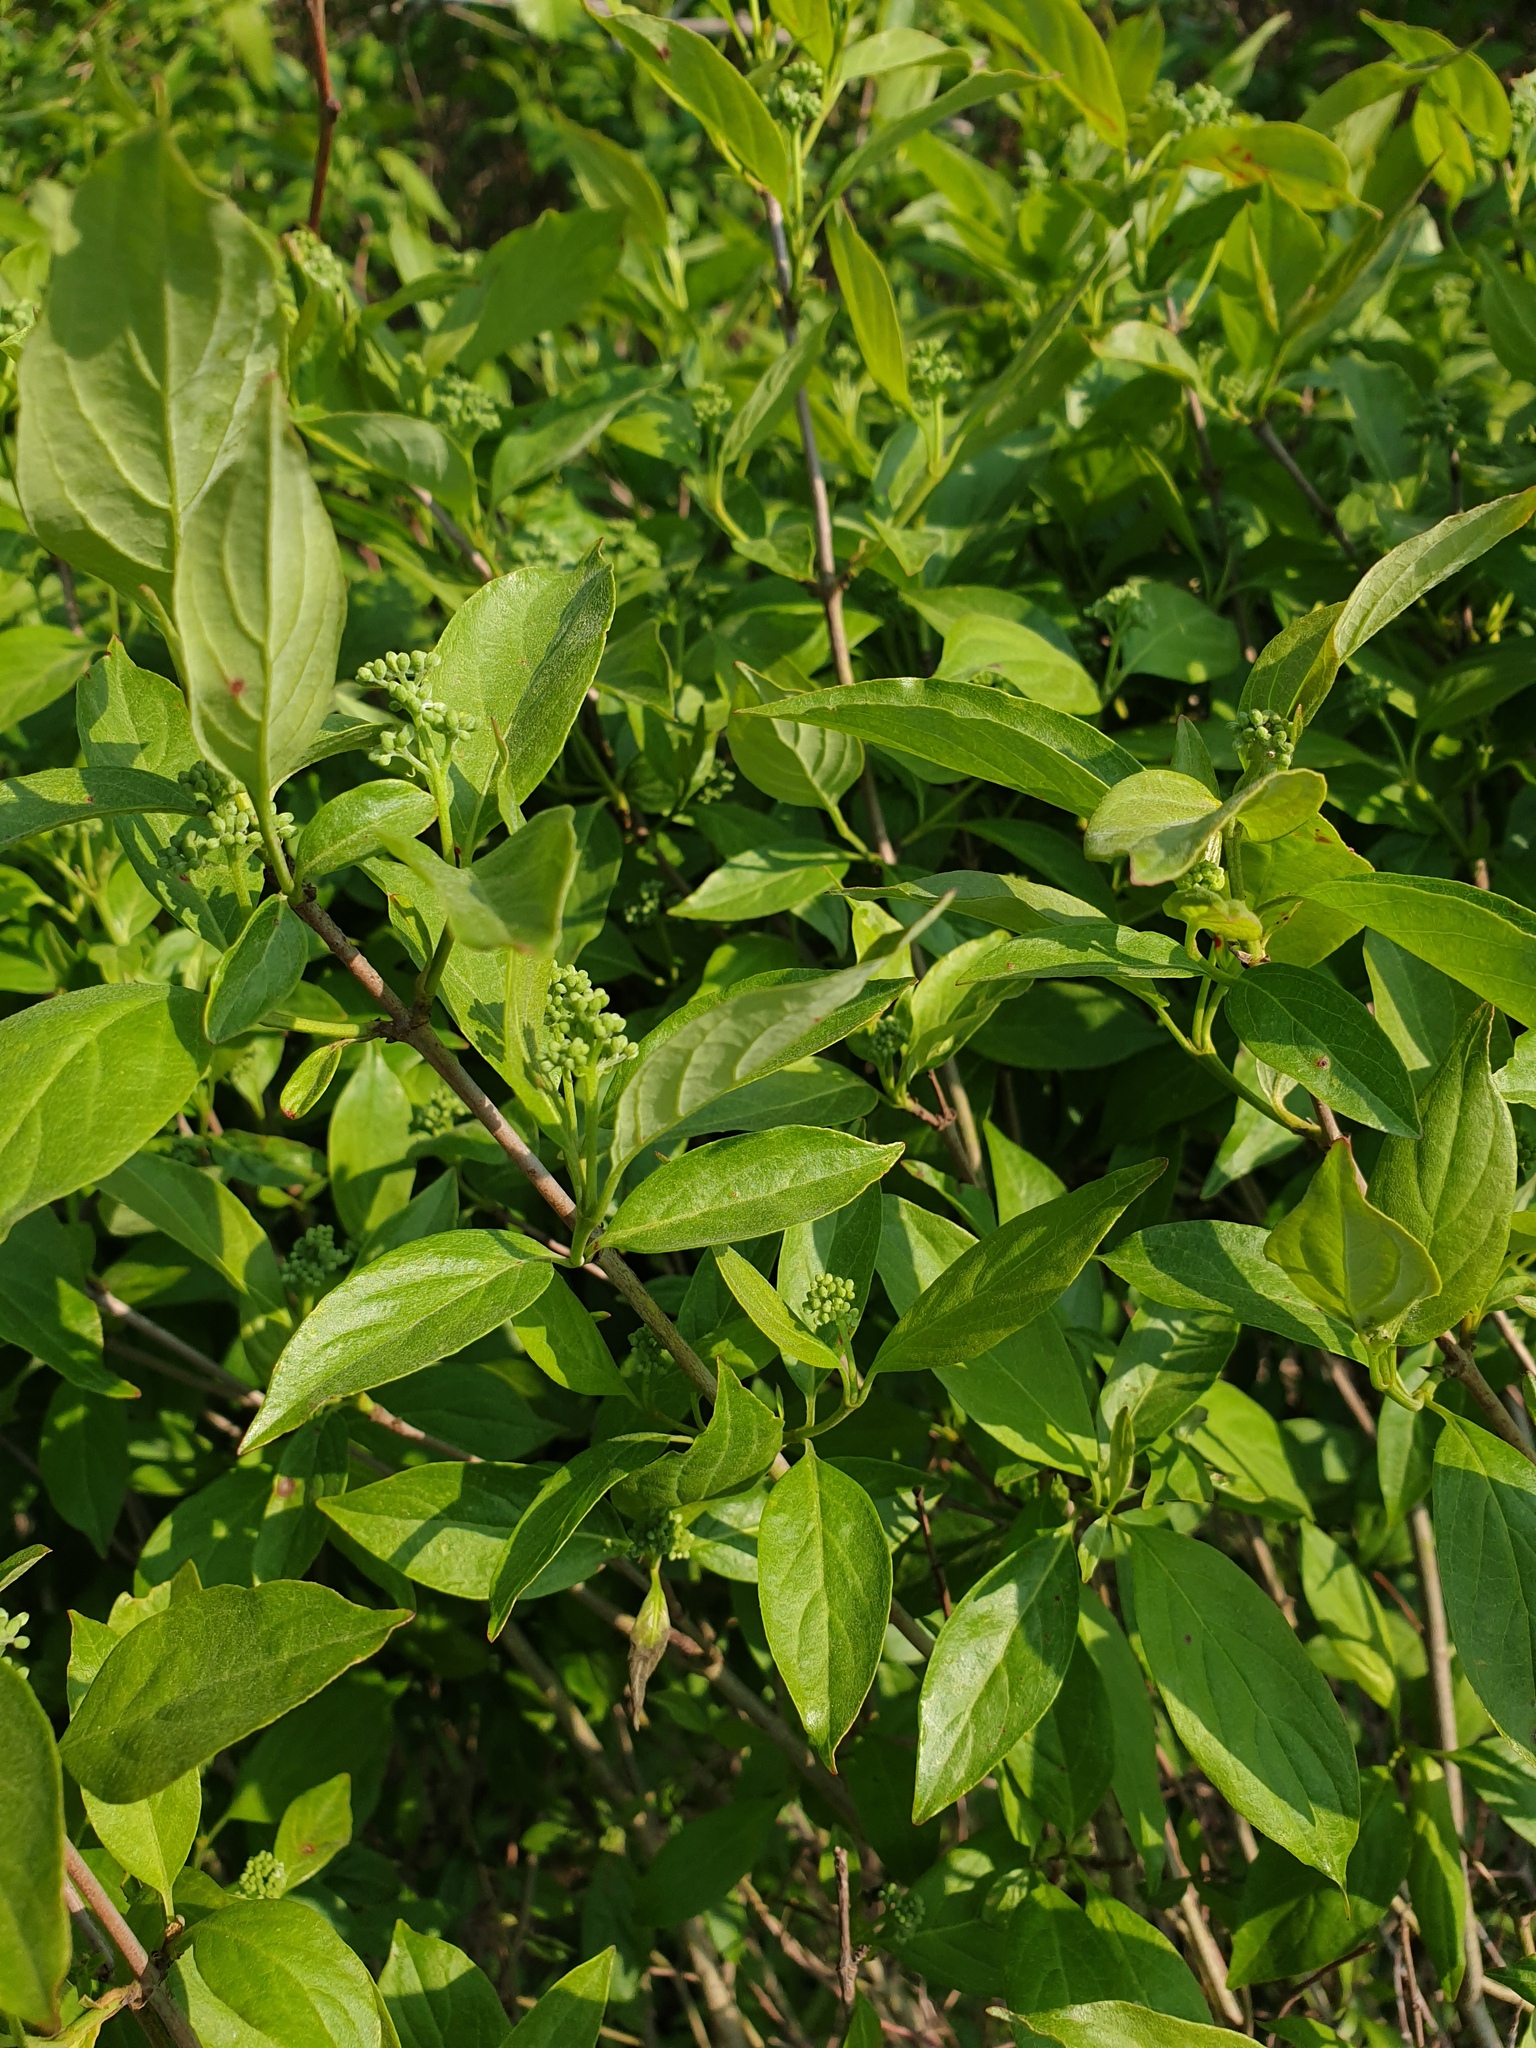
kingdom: Plantae
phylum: Tracheophyta
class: Magnoliopsida
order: Cornales
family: Cornaceae
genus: Cornus
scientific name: Cornus racemosa
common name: Panicled dogwood
